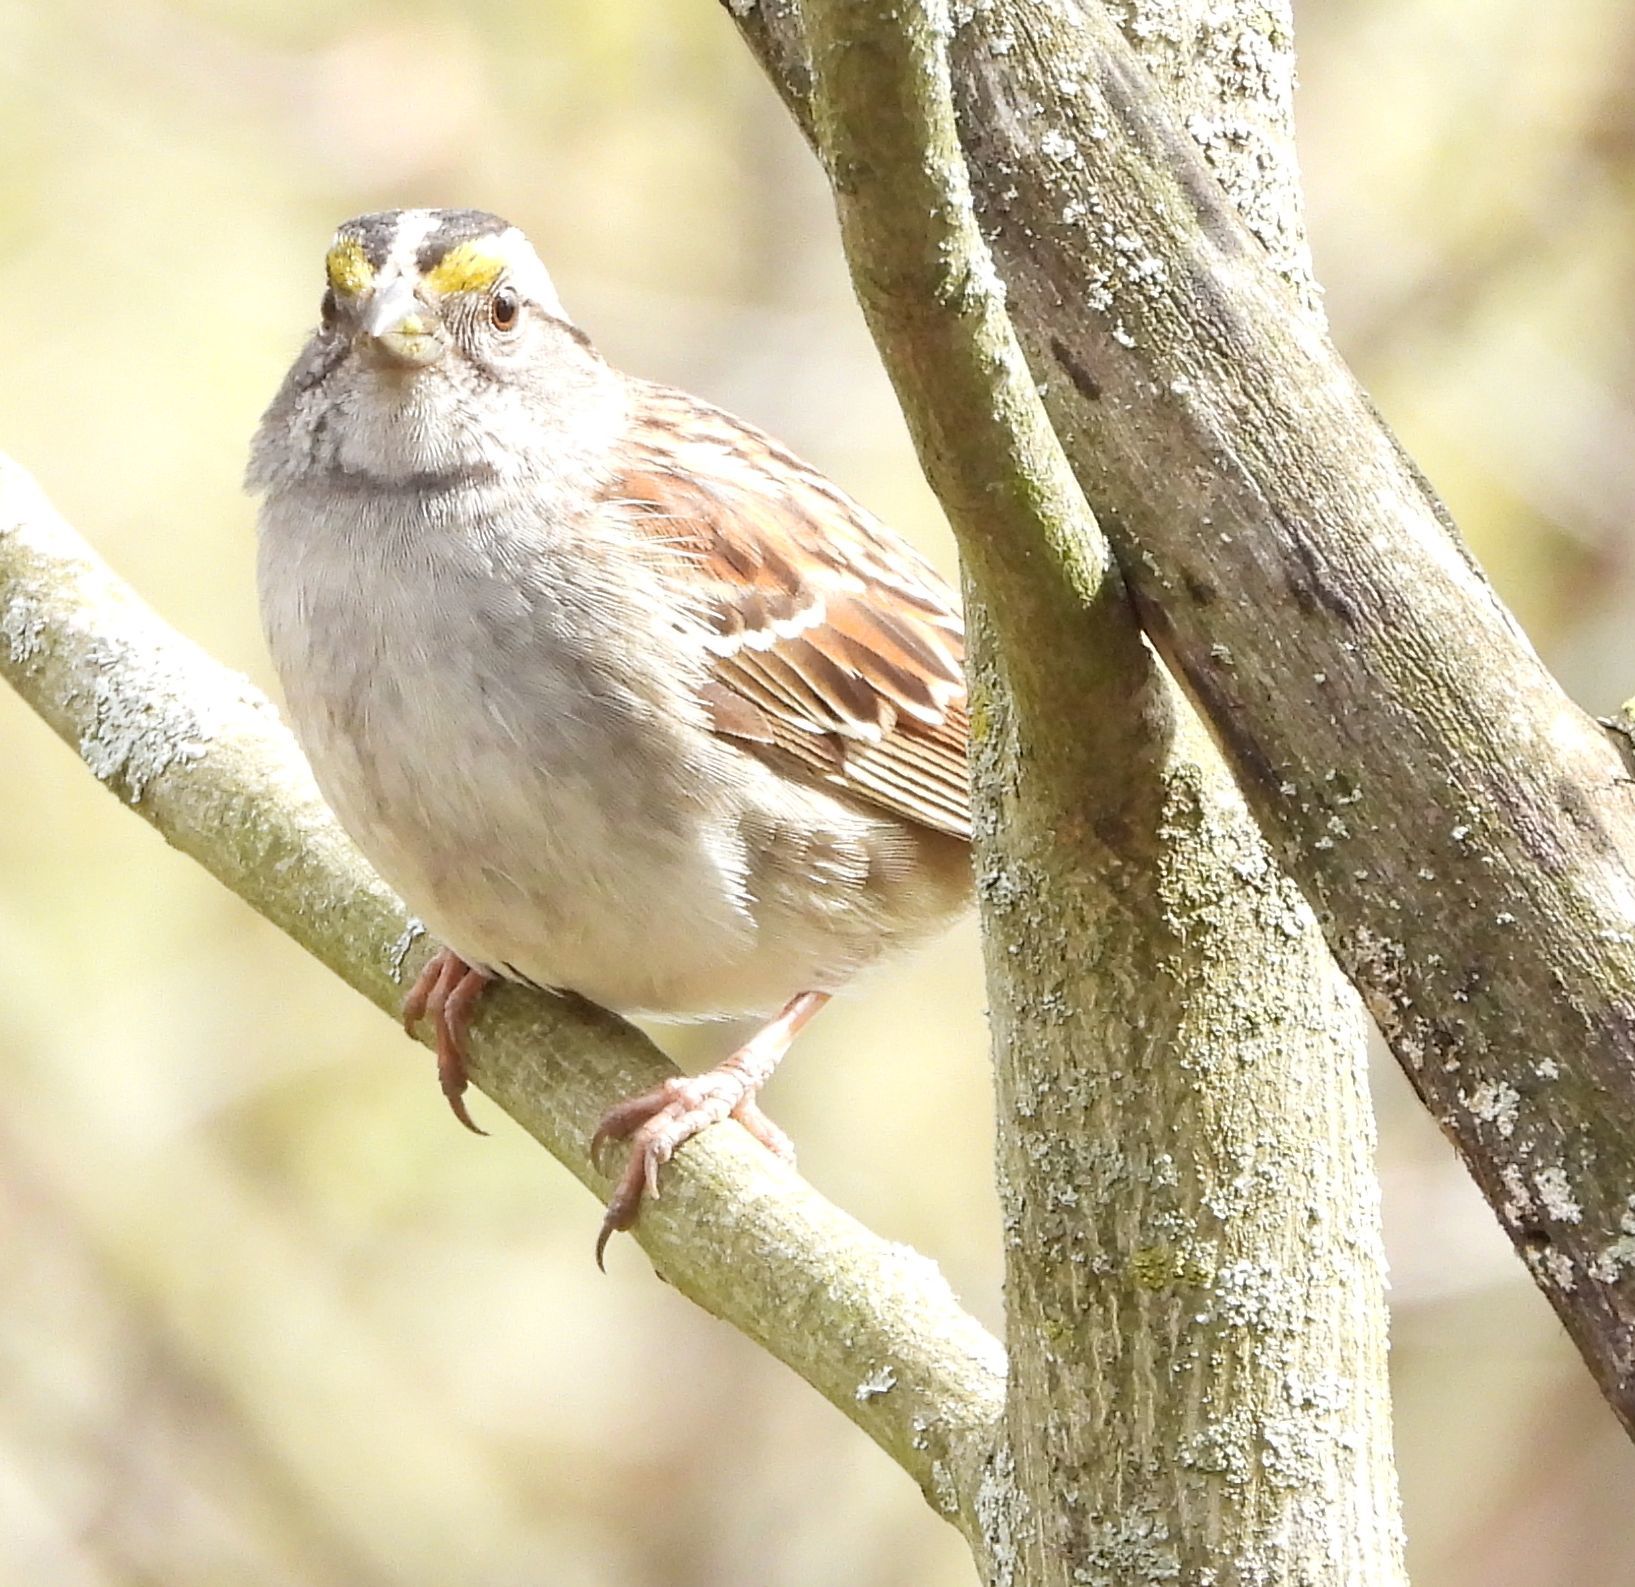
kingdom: Animalia
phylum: Chordata
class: Aves
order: Passeriformes
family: Passerellidae
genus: Zonotrichia
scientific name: Zonotrichia albicollis
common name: White-throated sparrow
